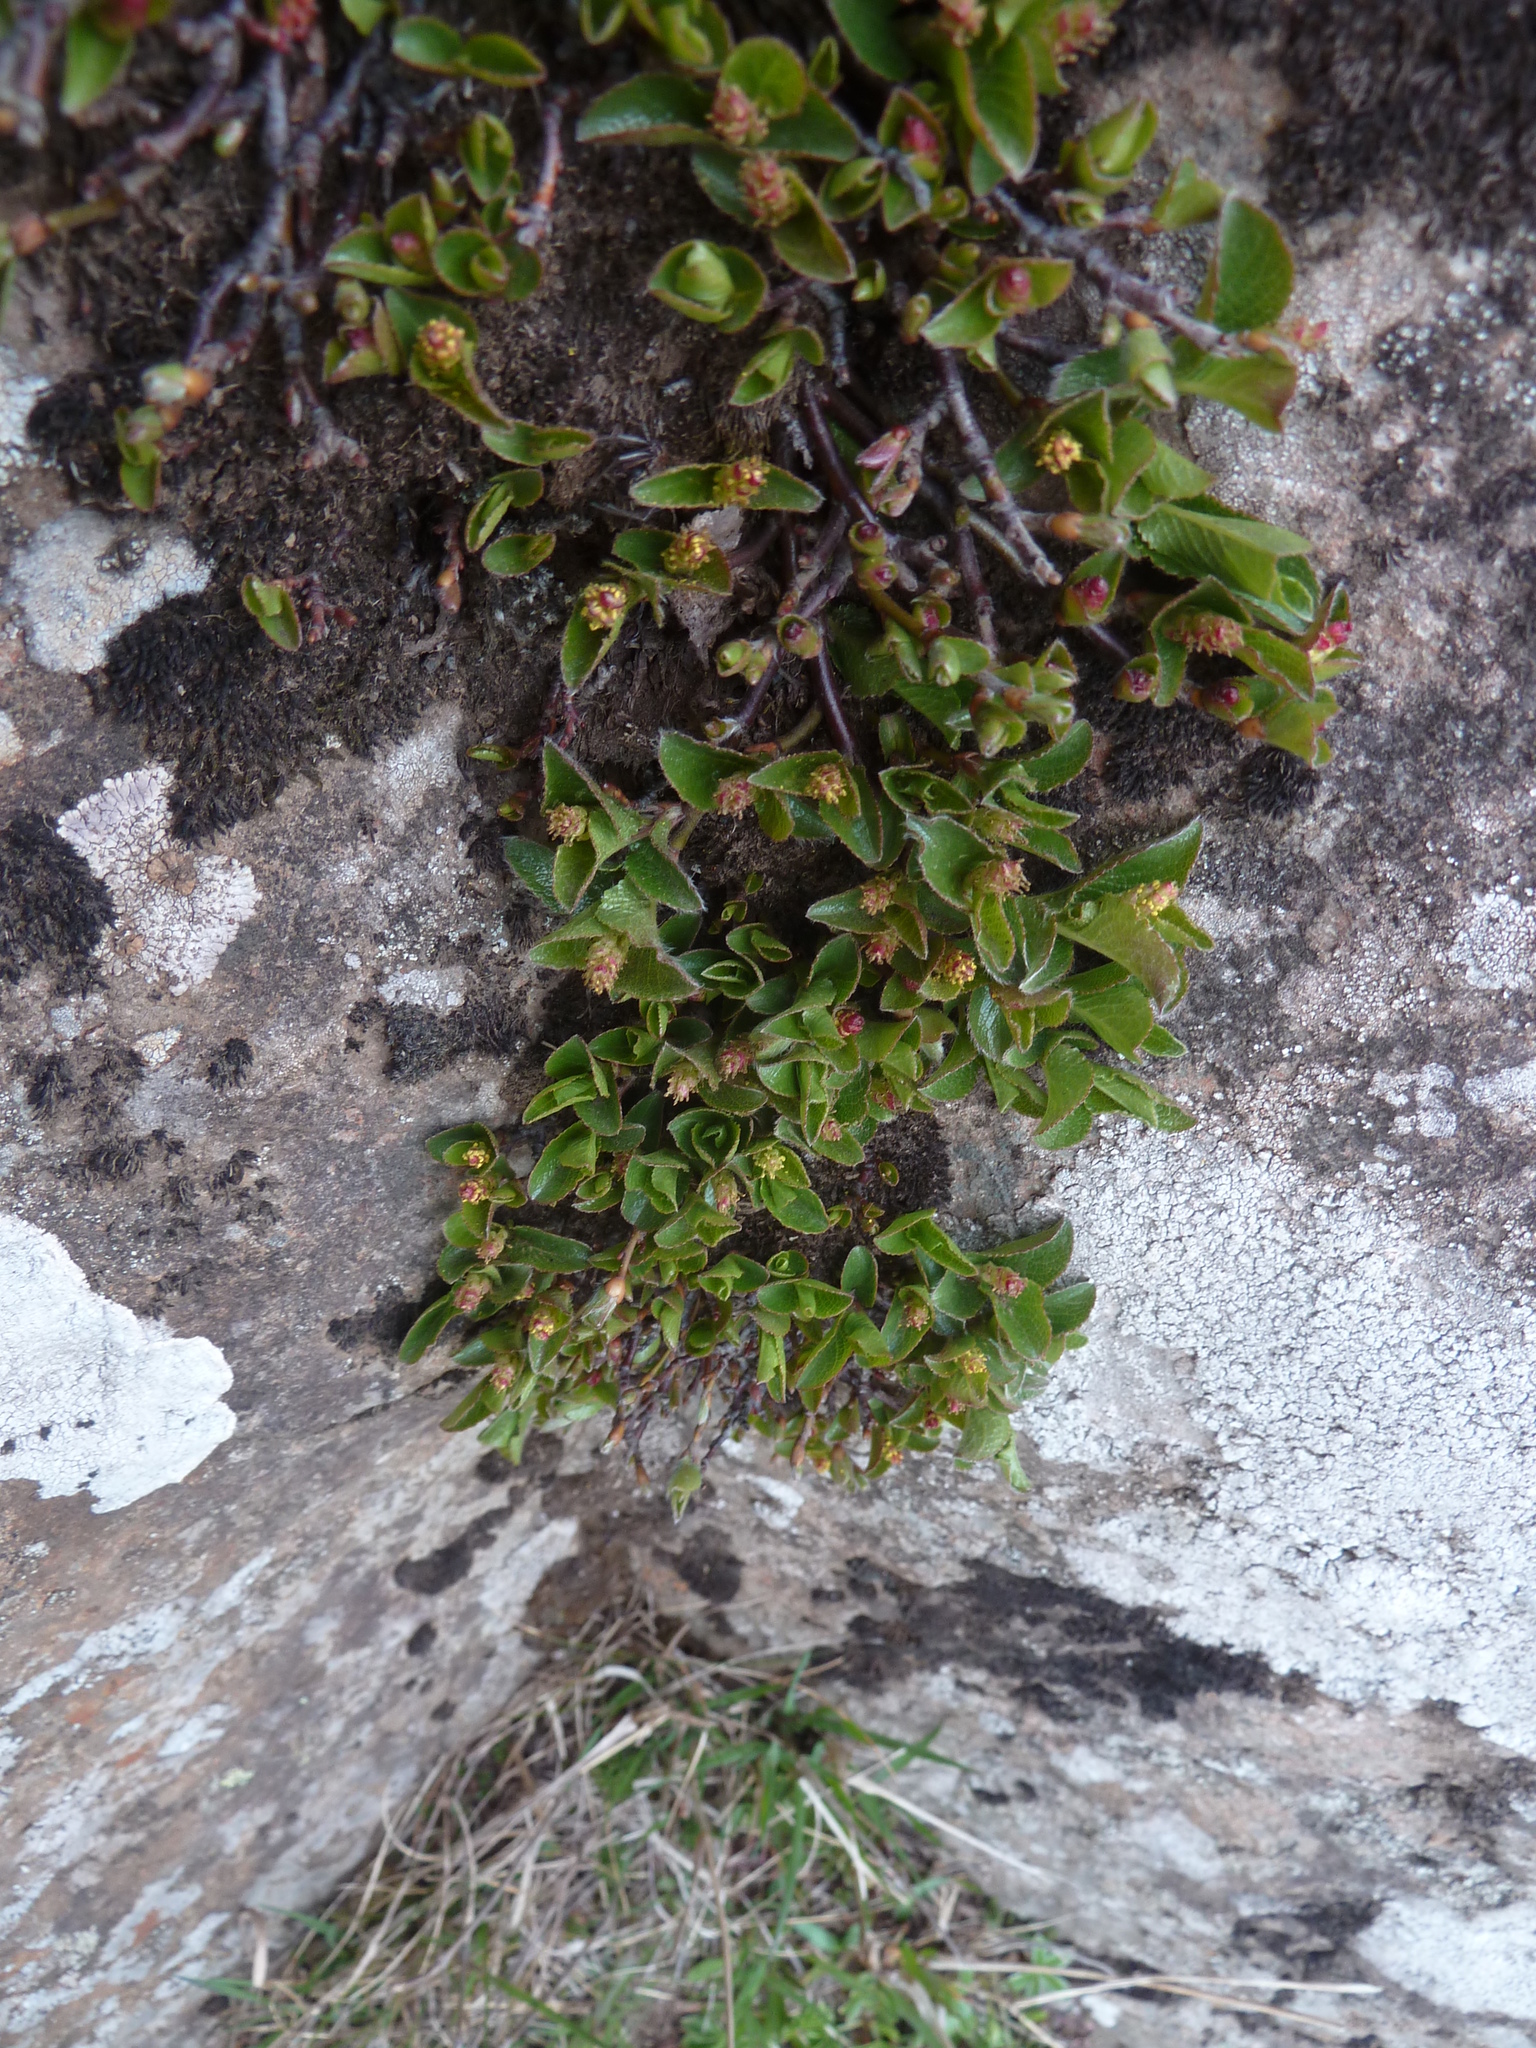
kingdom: Plantae
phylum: Tracheophyta
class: Magnoliopsida
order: Malpighiales
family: Salicaceae
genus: Salix
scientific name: Salix herbacea
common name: Dwarf willow
